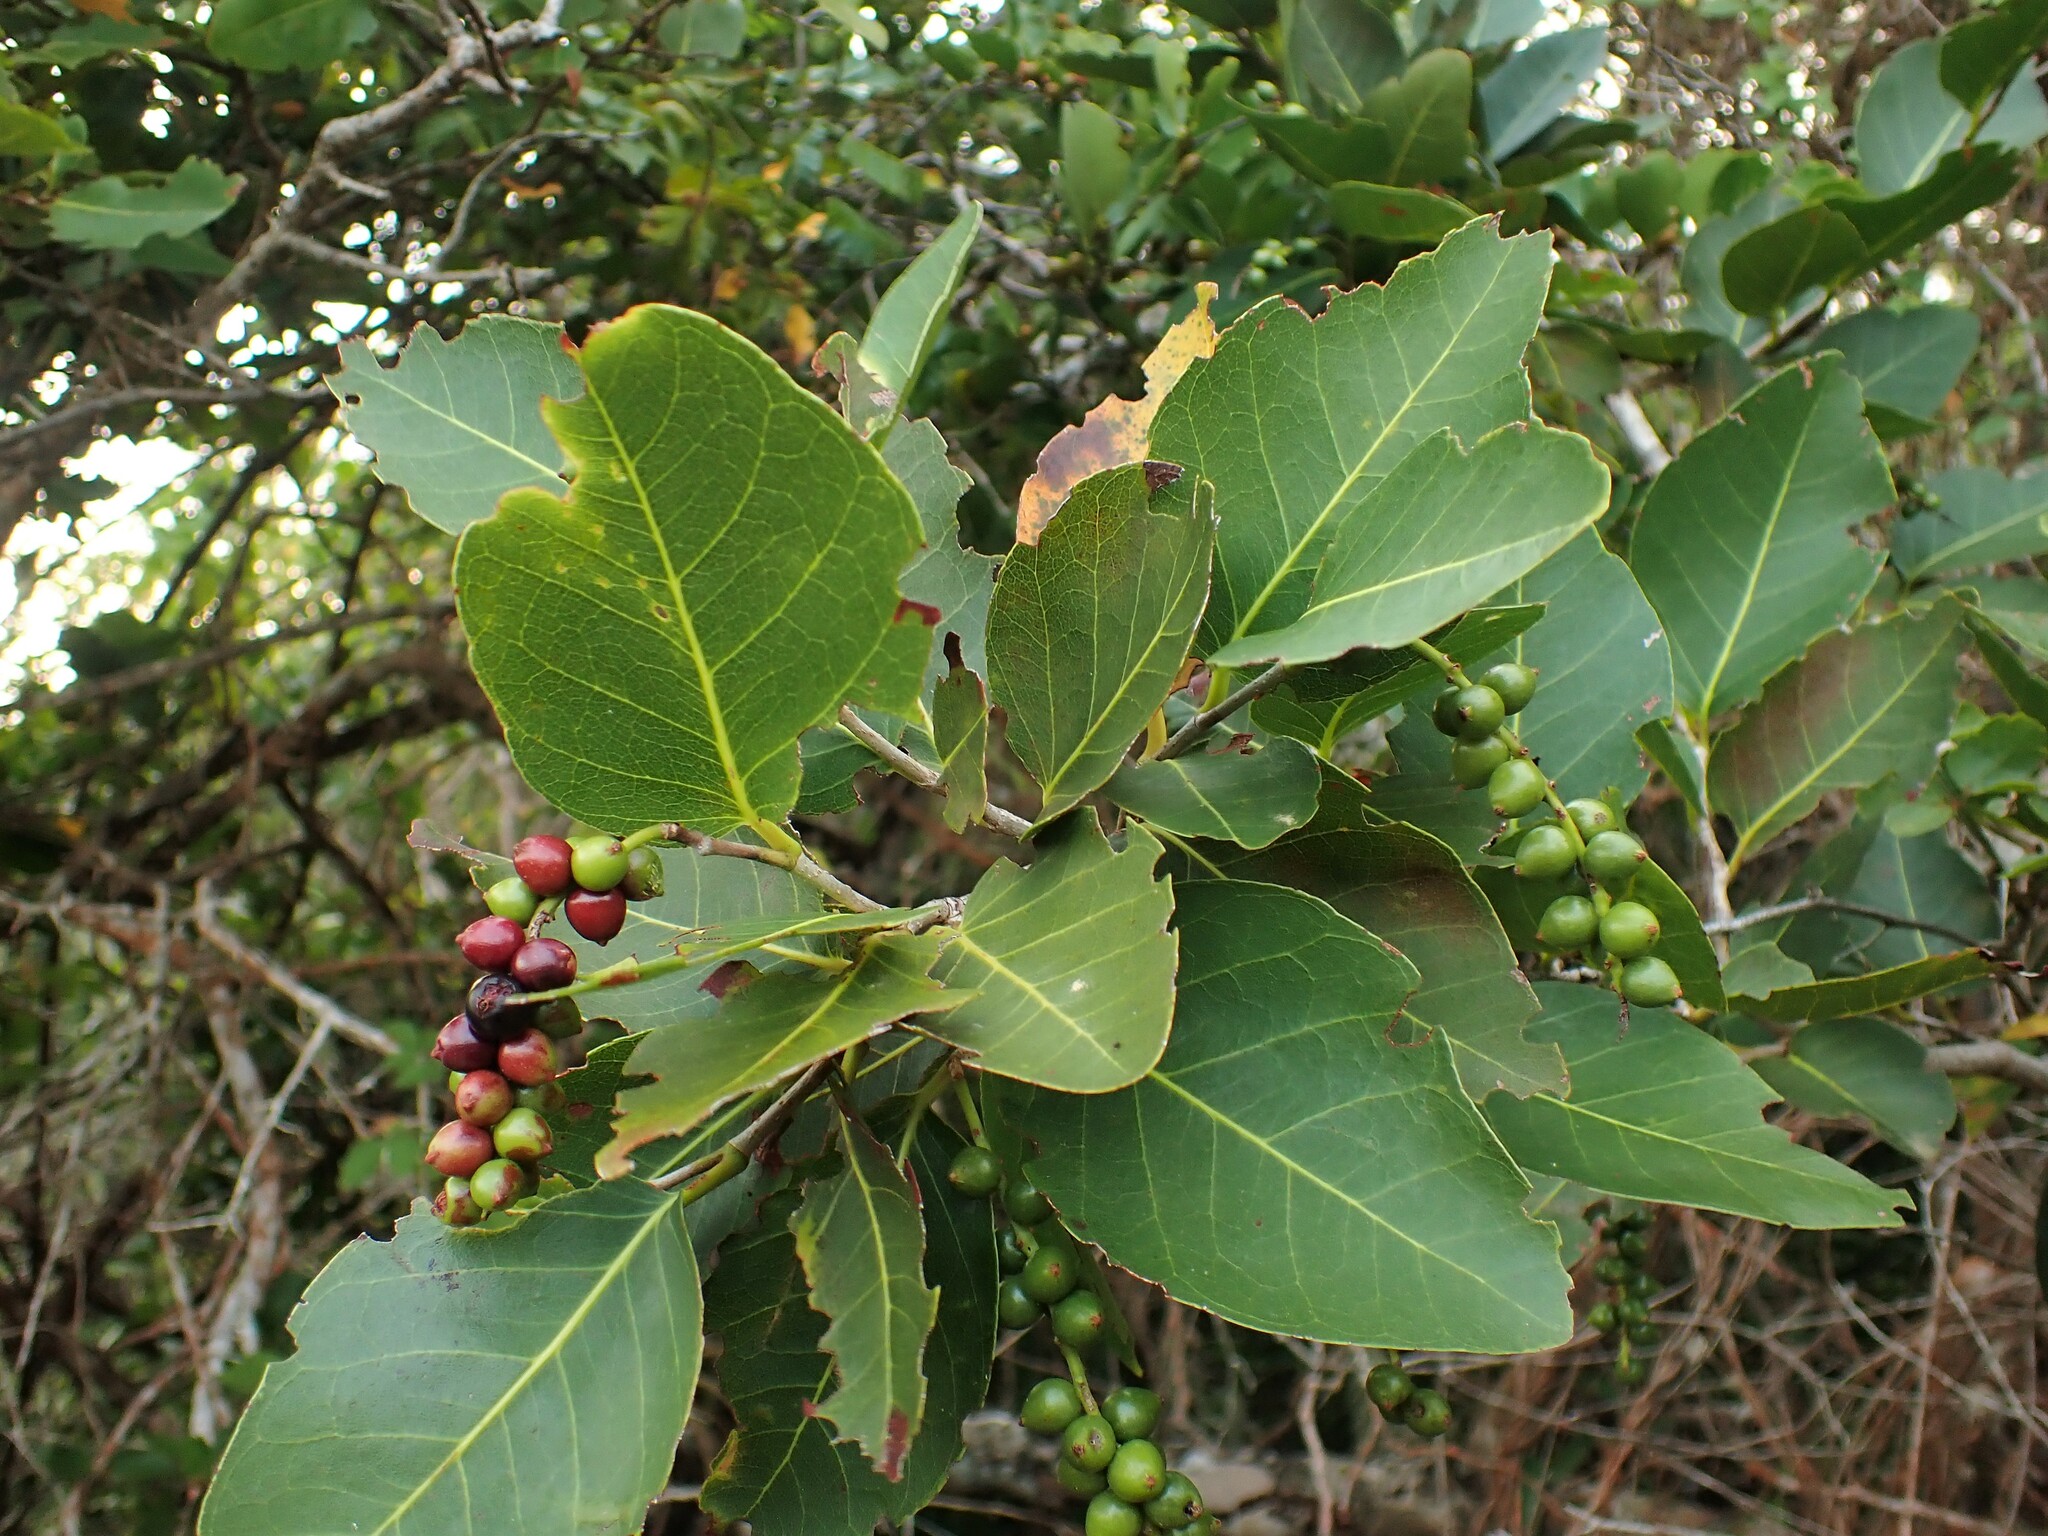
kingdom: Plantae
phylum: Tracheophyta
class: Magnoliopsida
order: Caryophyllales
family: Polygonaceae
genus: Coccoloba
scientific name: Coccoloba swartzii
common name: Red wood
